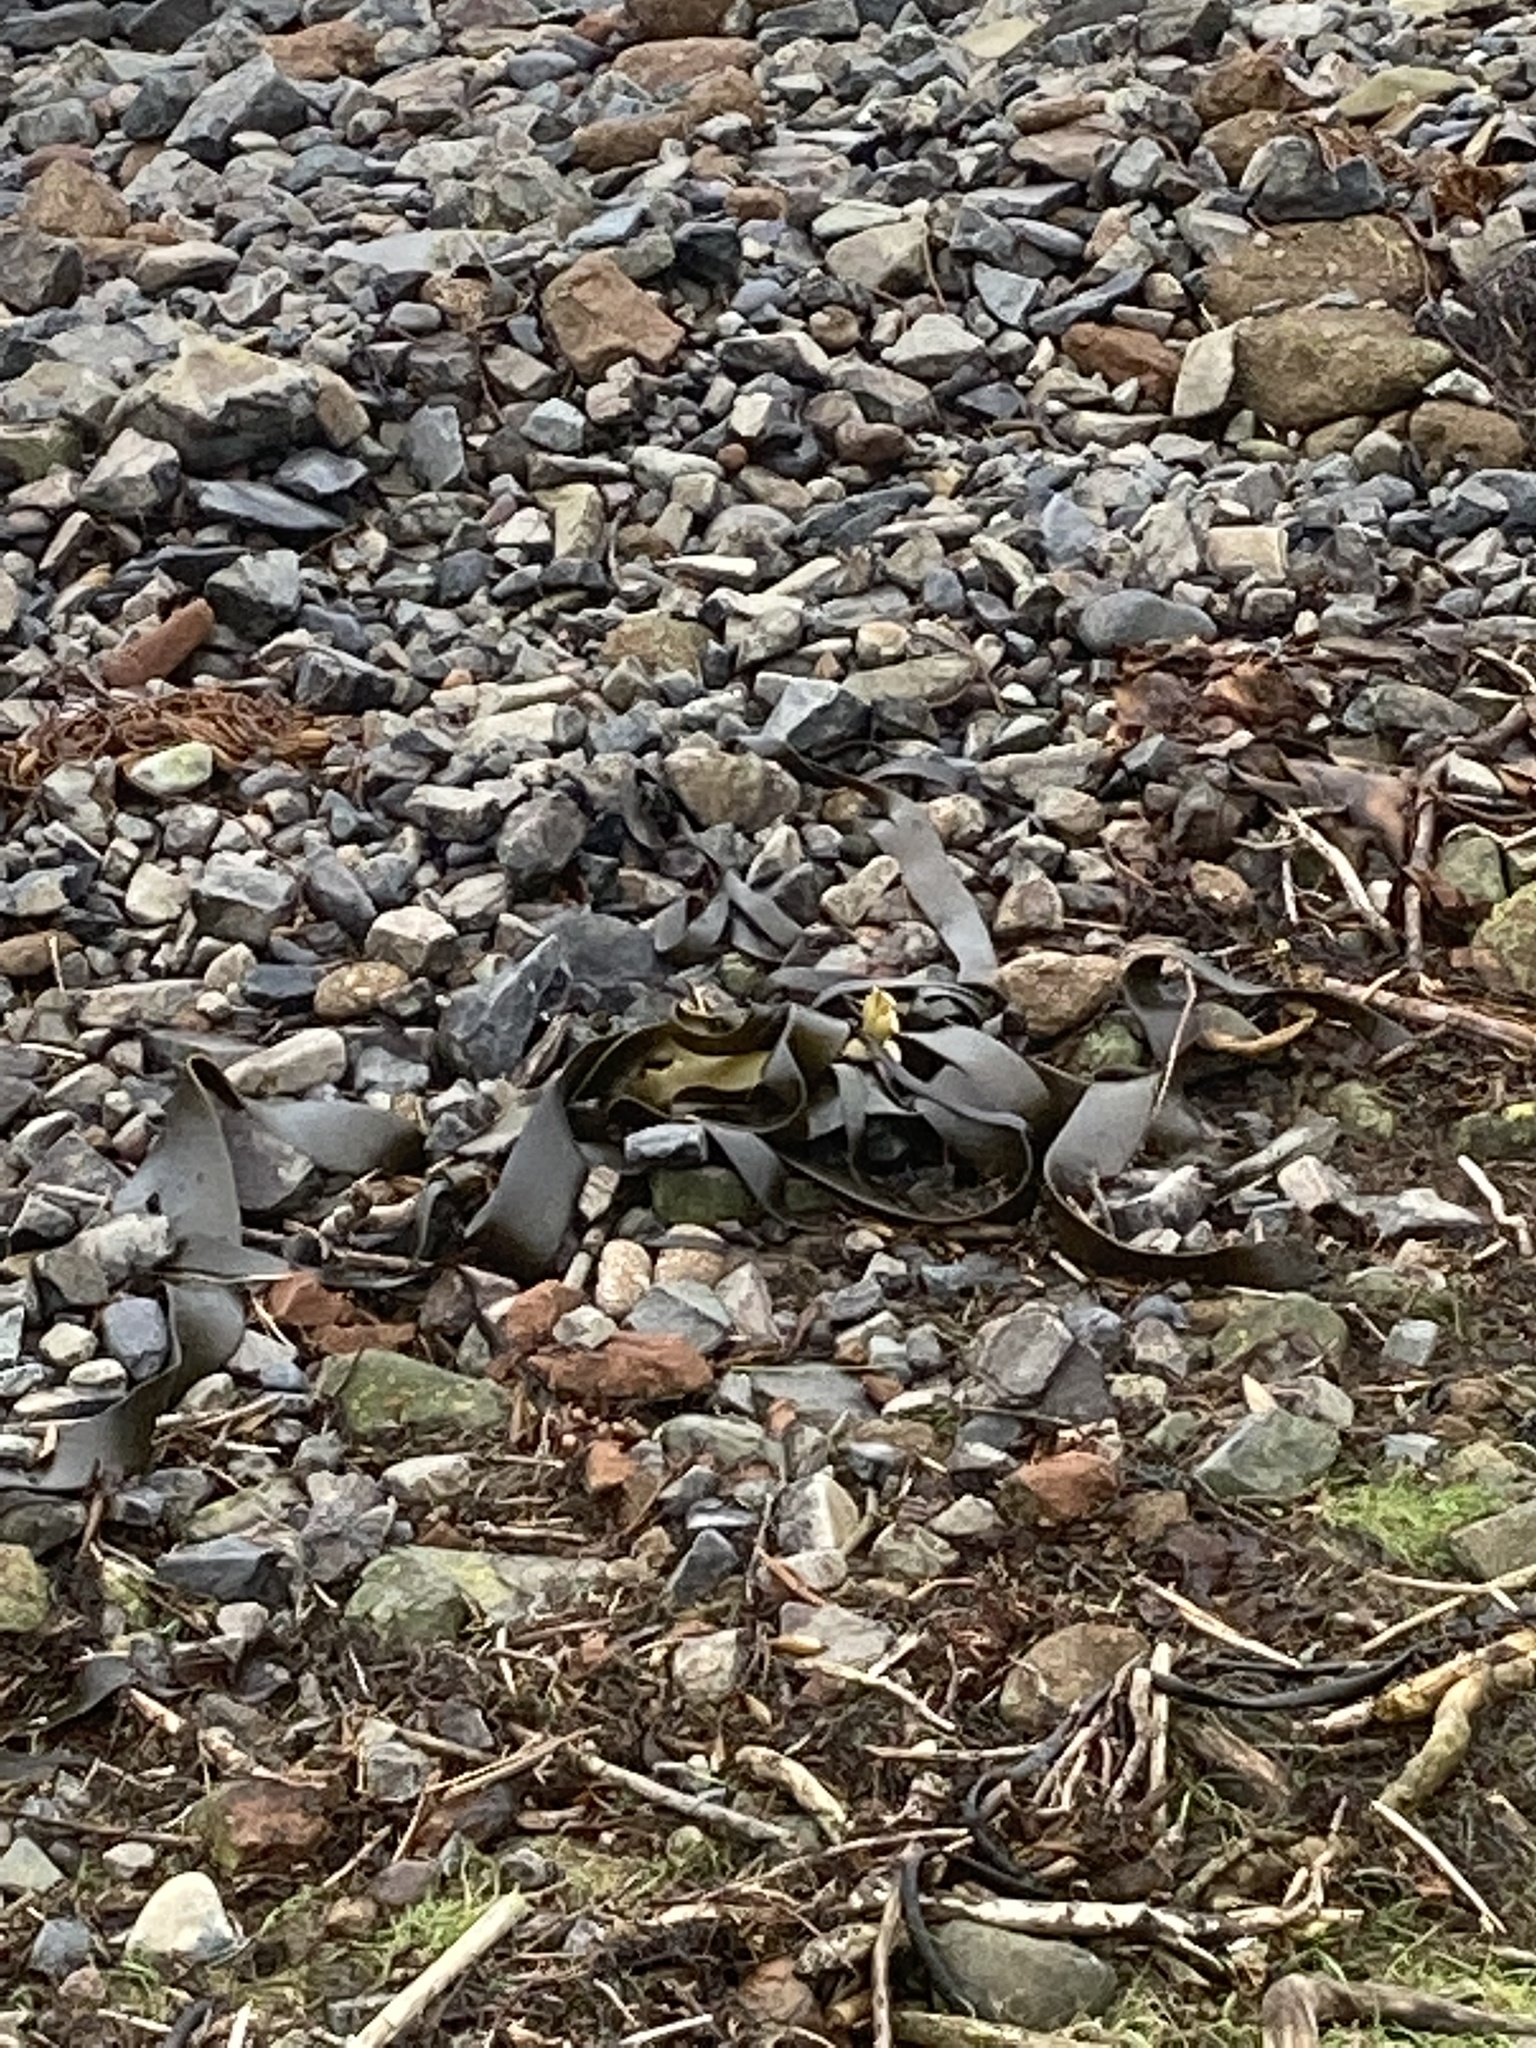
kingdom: Chromista
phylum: Ochrophyta
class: Phaeophyceae
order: Fucales
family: Durvillaeaceae
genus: Durvillaea
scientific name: Durvillaea antarctica
